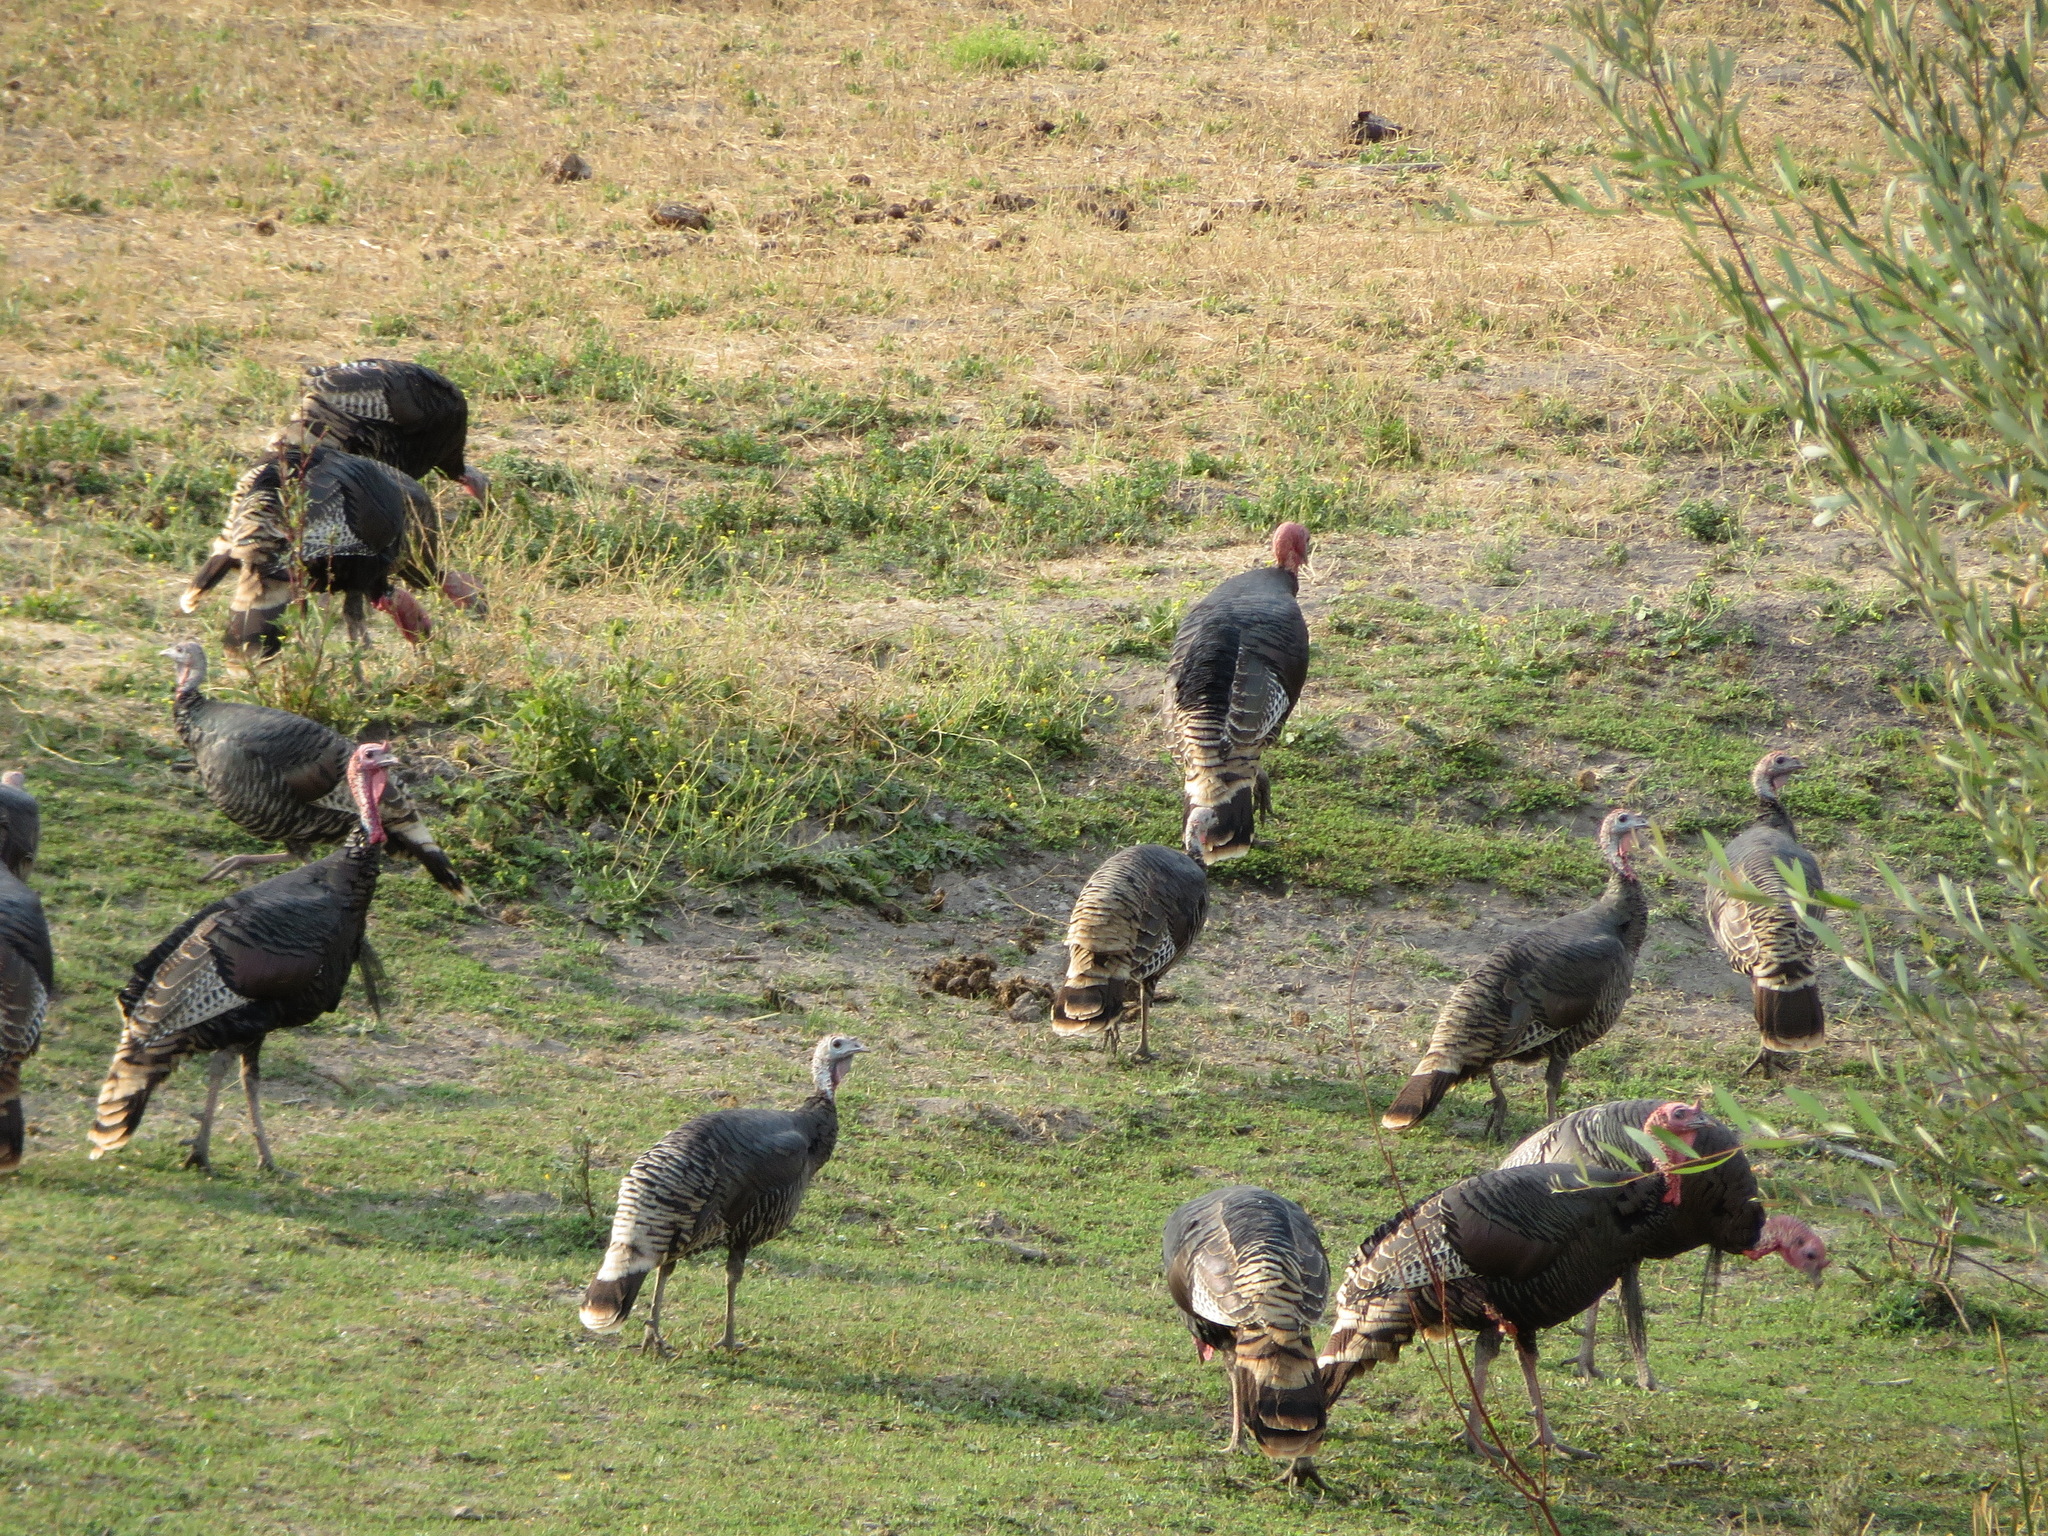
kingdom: Animalia
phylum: Chordata
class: Aves
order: Galliformes
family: Phasianidae
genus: Meleagris
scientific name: Meleagris gallopavo
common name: Wild turkey
